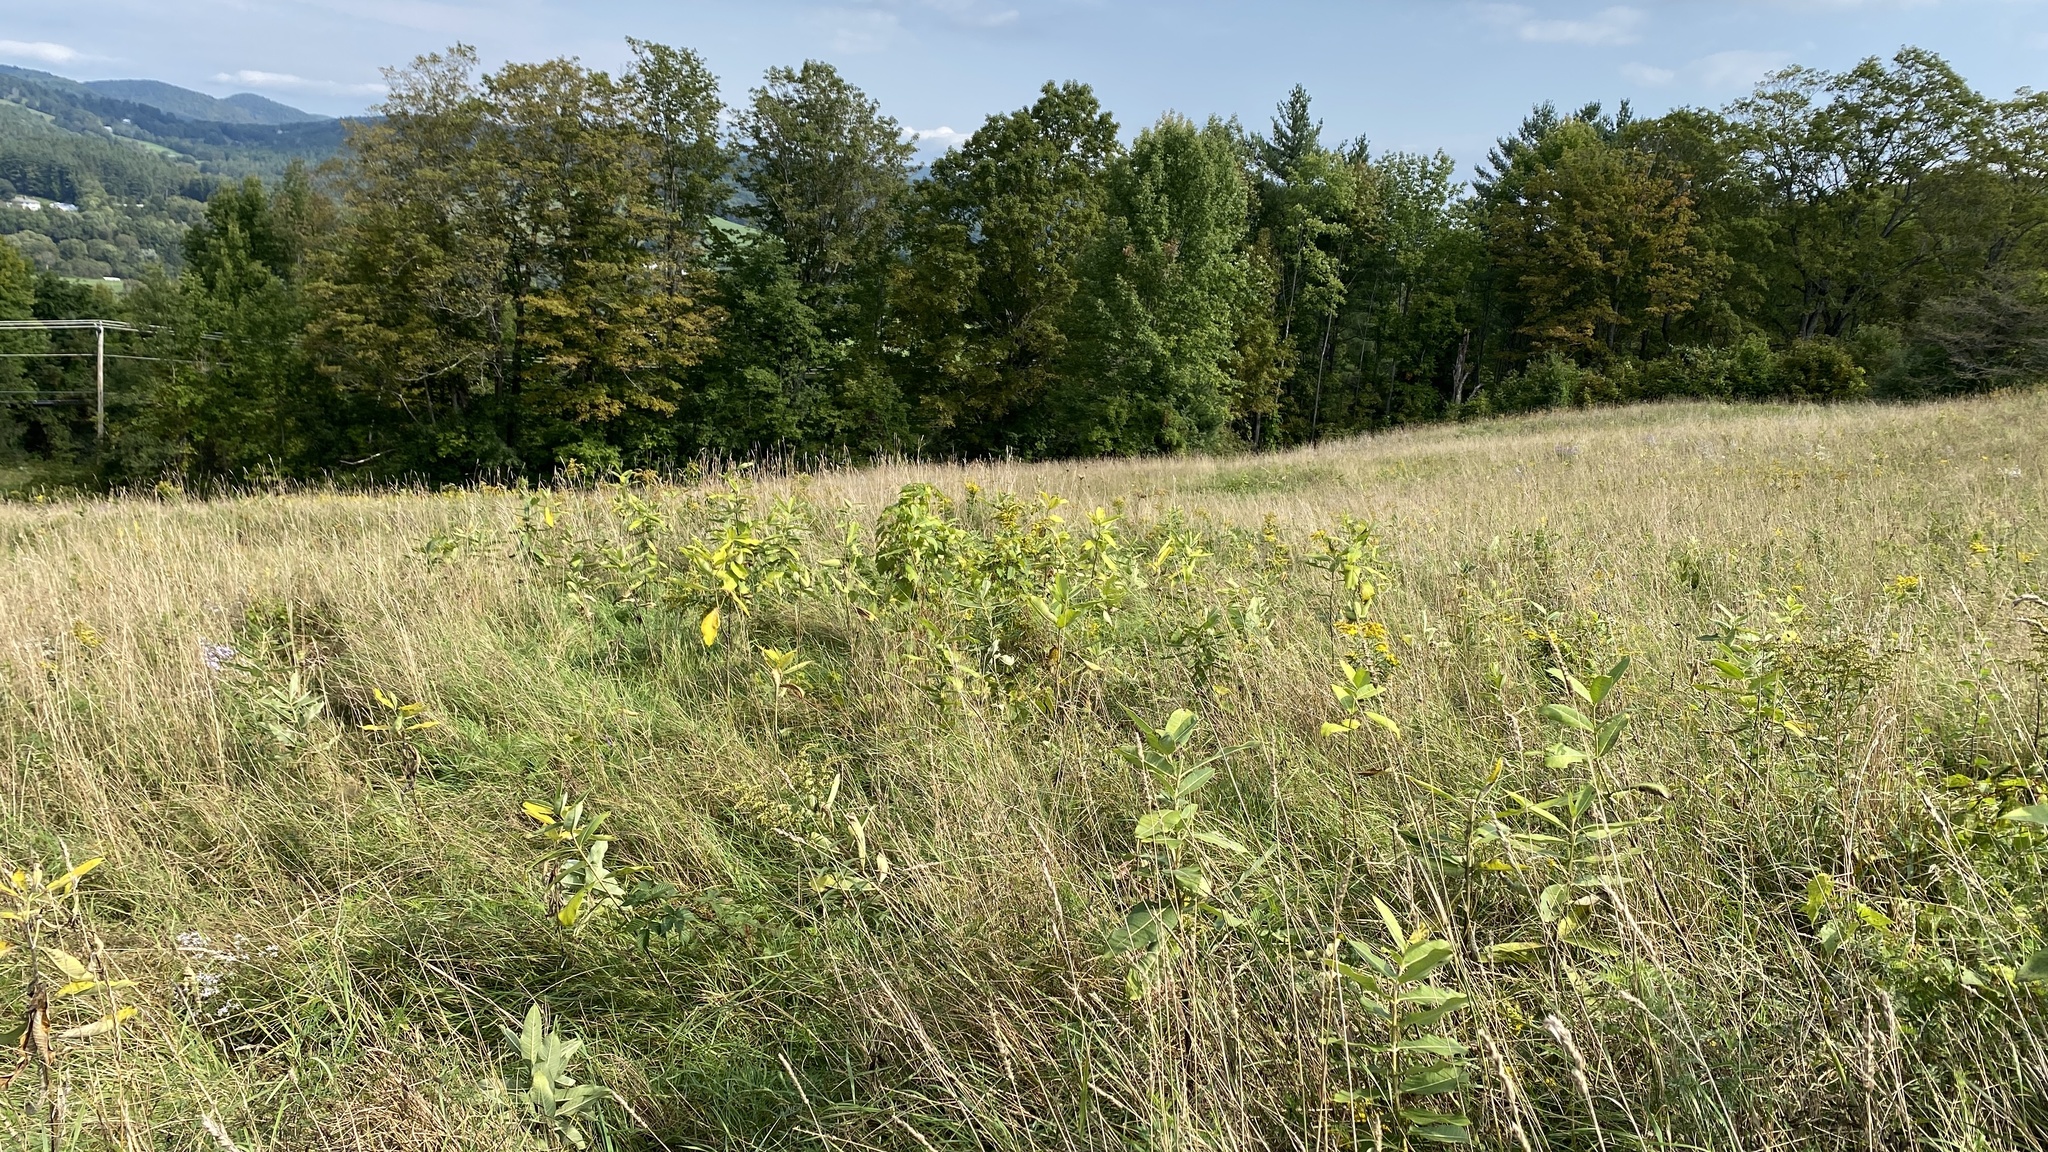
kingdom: Plantae
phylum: Tracheophyta
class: Magnoliopsida
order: Gentianales
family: Apocynaceae
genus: Asclepias
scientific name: Asclepias syriaca
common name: Common milkweed
